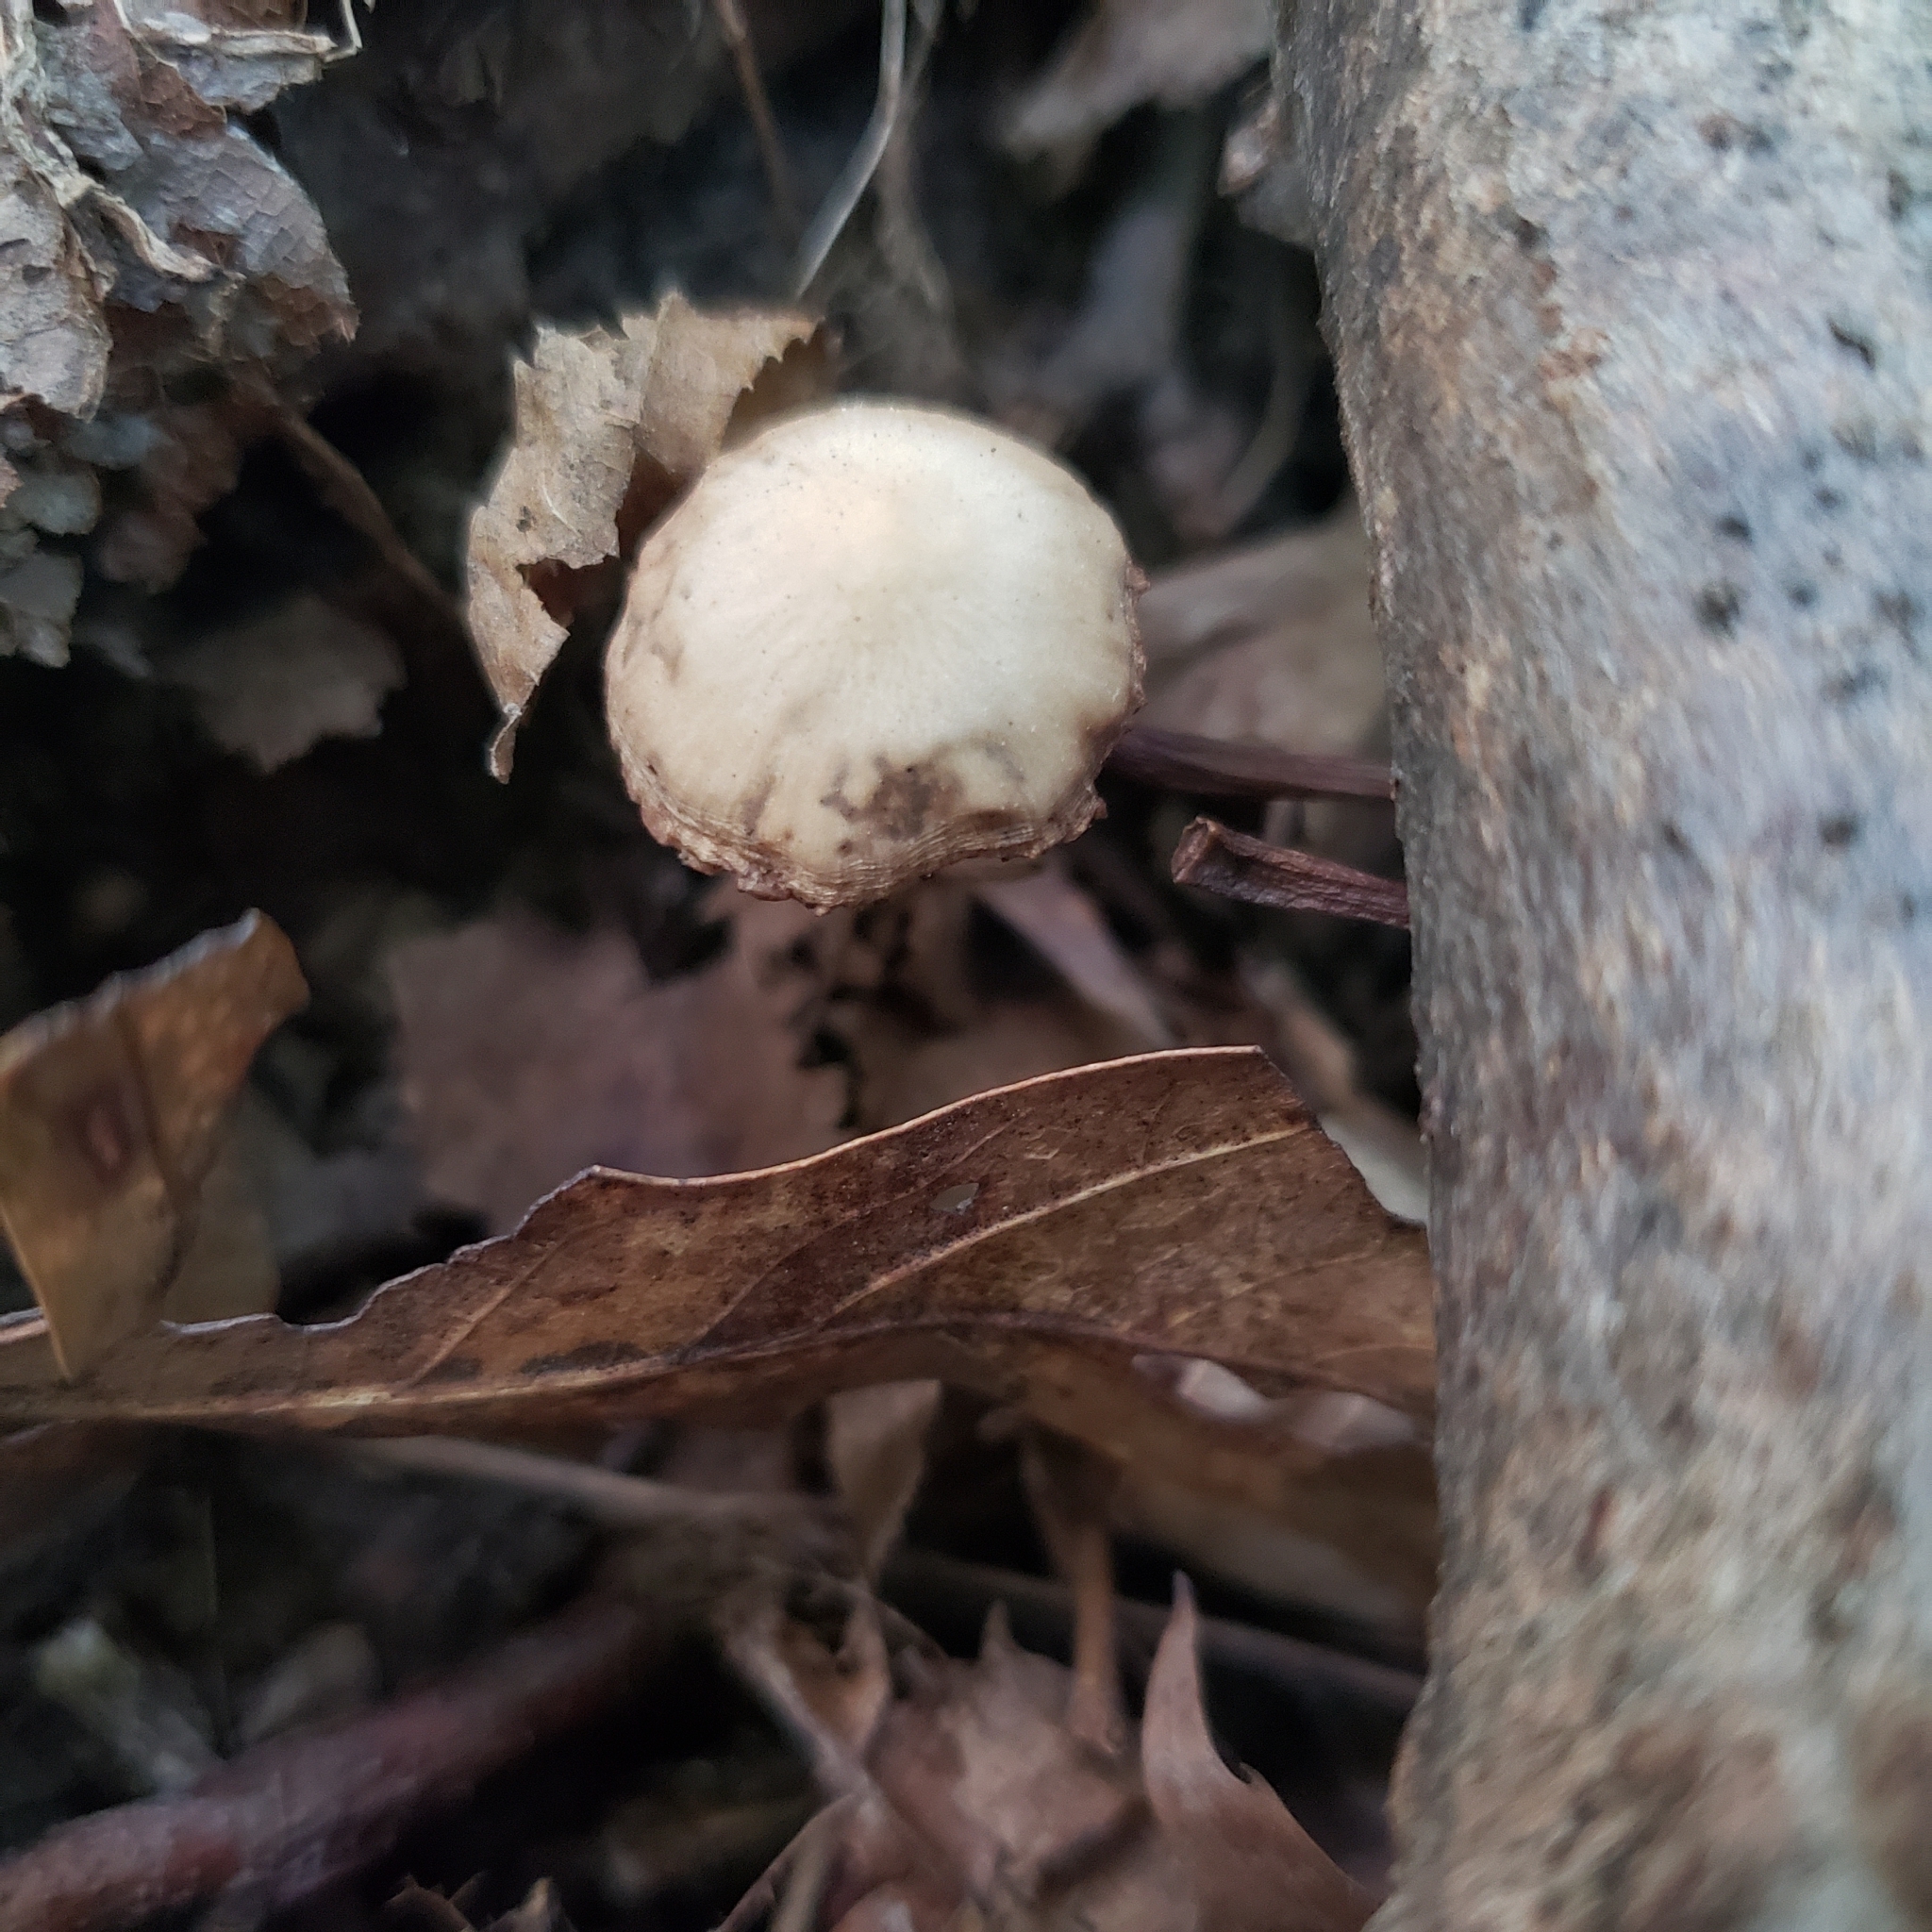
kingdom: Fungi
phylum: Basidiomycota
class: Agaricomycetes
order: Agaricales
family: Psathyrellaceae
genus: Psathyrella
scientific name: Psathyrella psammophila
